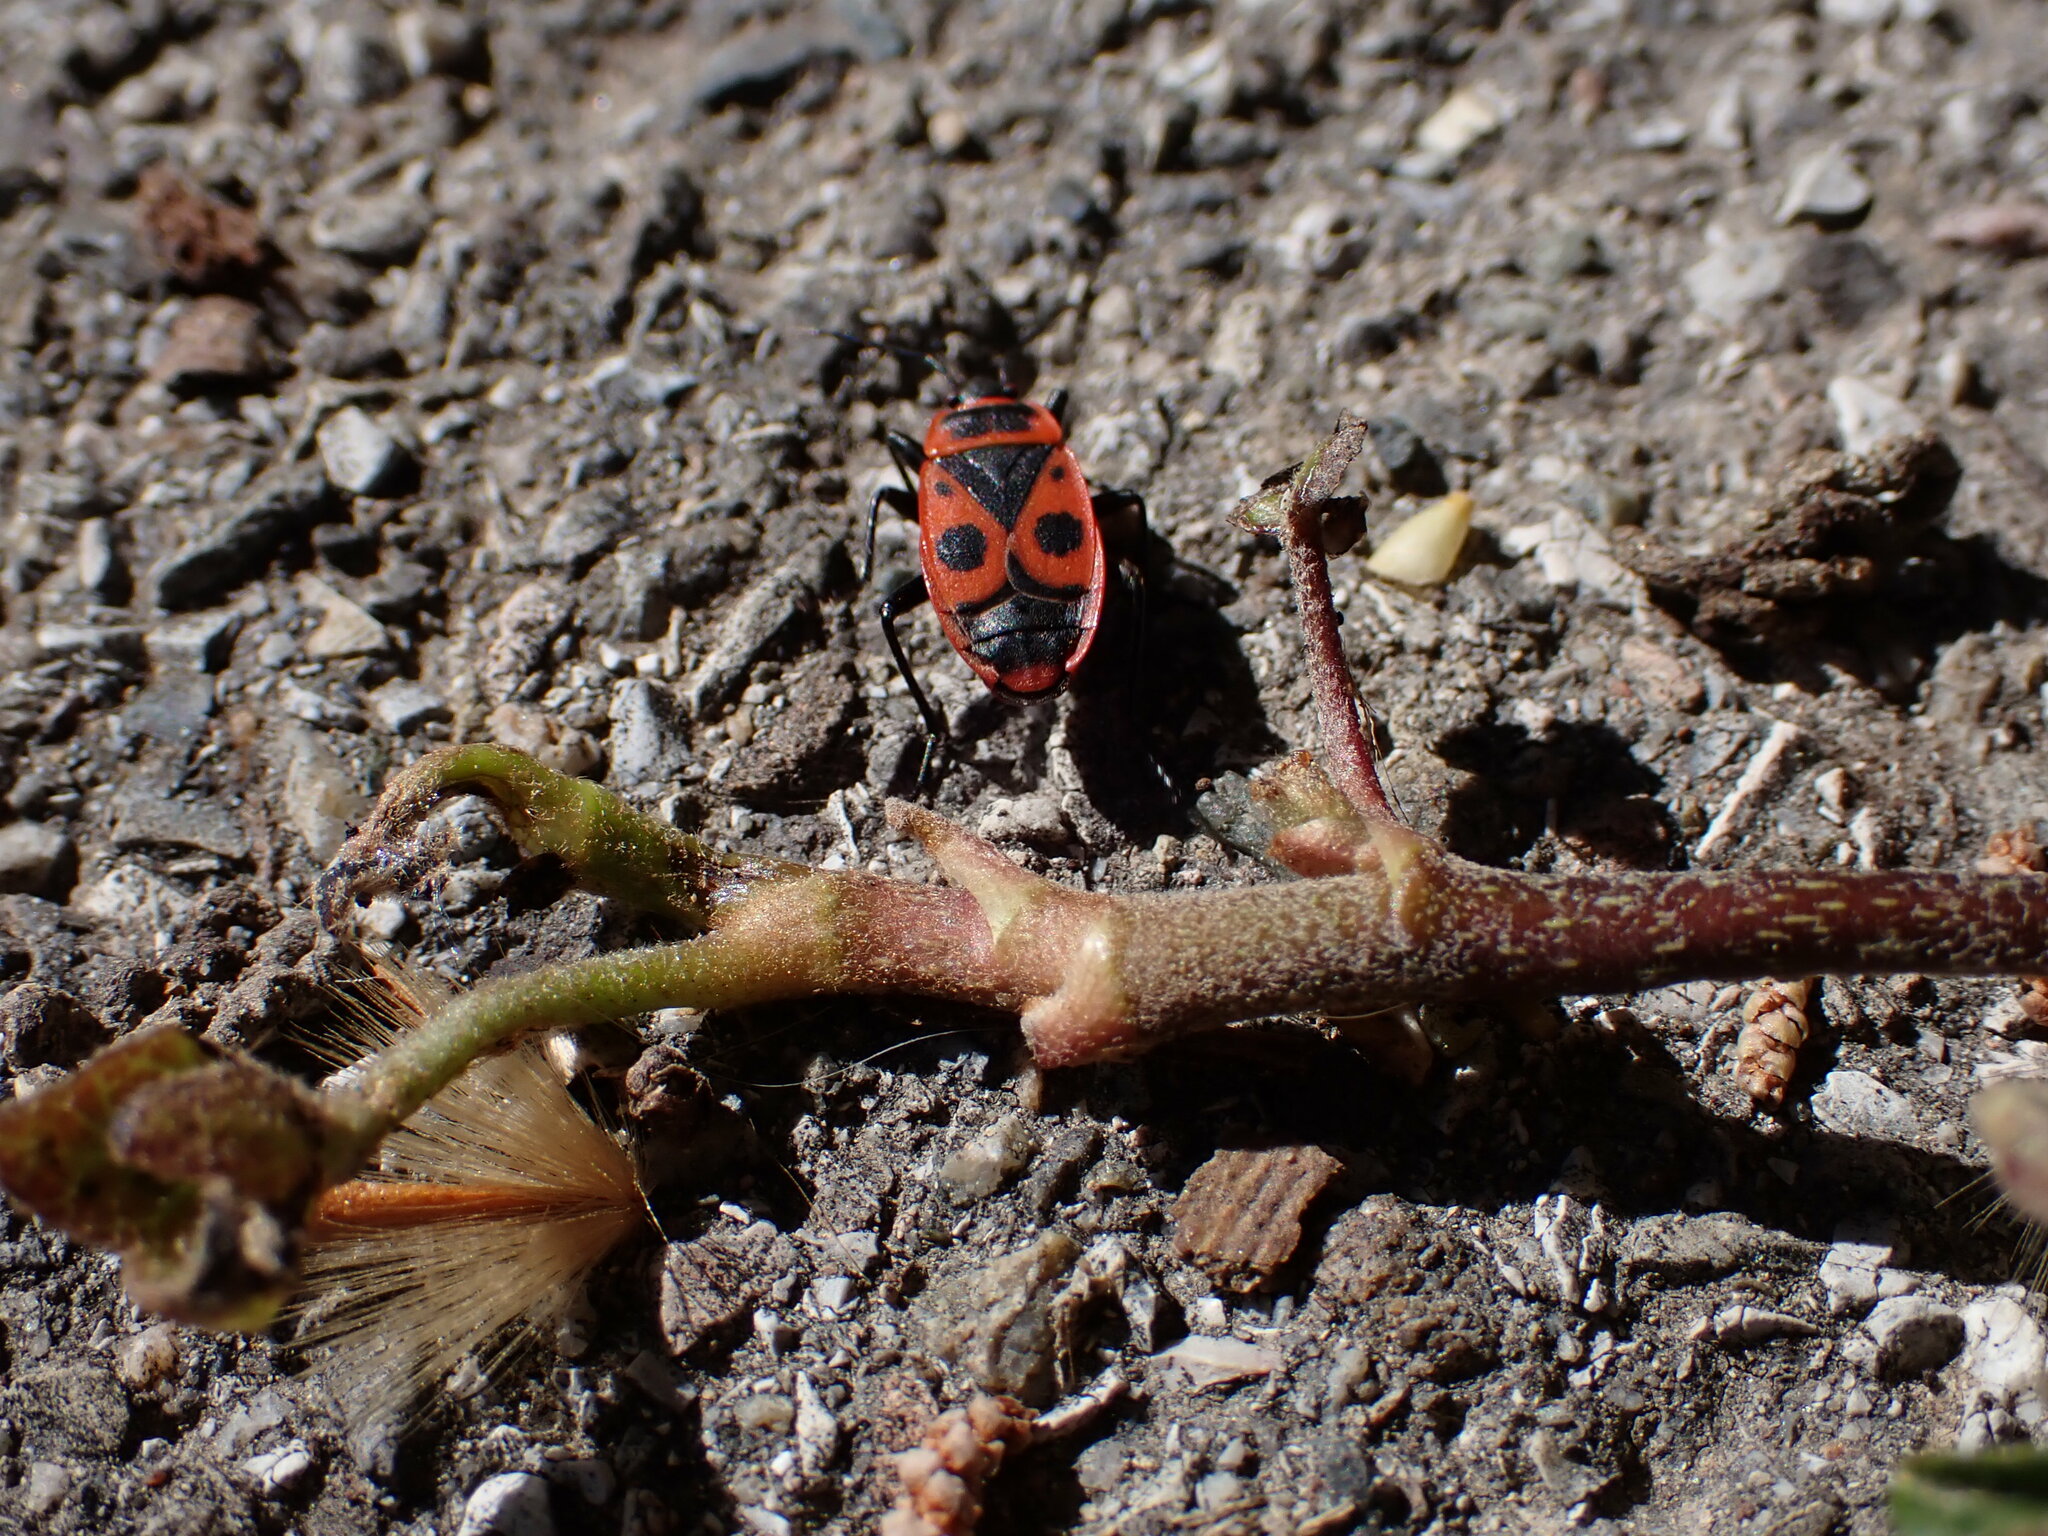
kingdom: Animalia
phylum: Arthropoda
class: Insecta
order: Hemiptera
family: Pyrrhocoridae
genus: Pyrrhocoris
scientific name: Pyrrhocoris apterus
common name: Firebug
